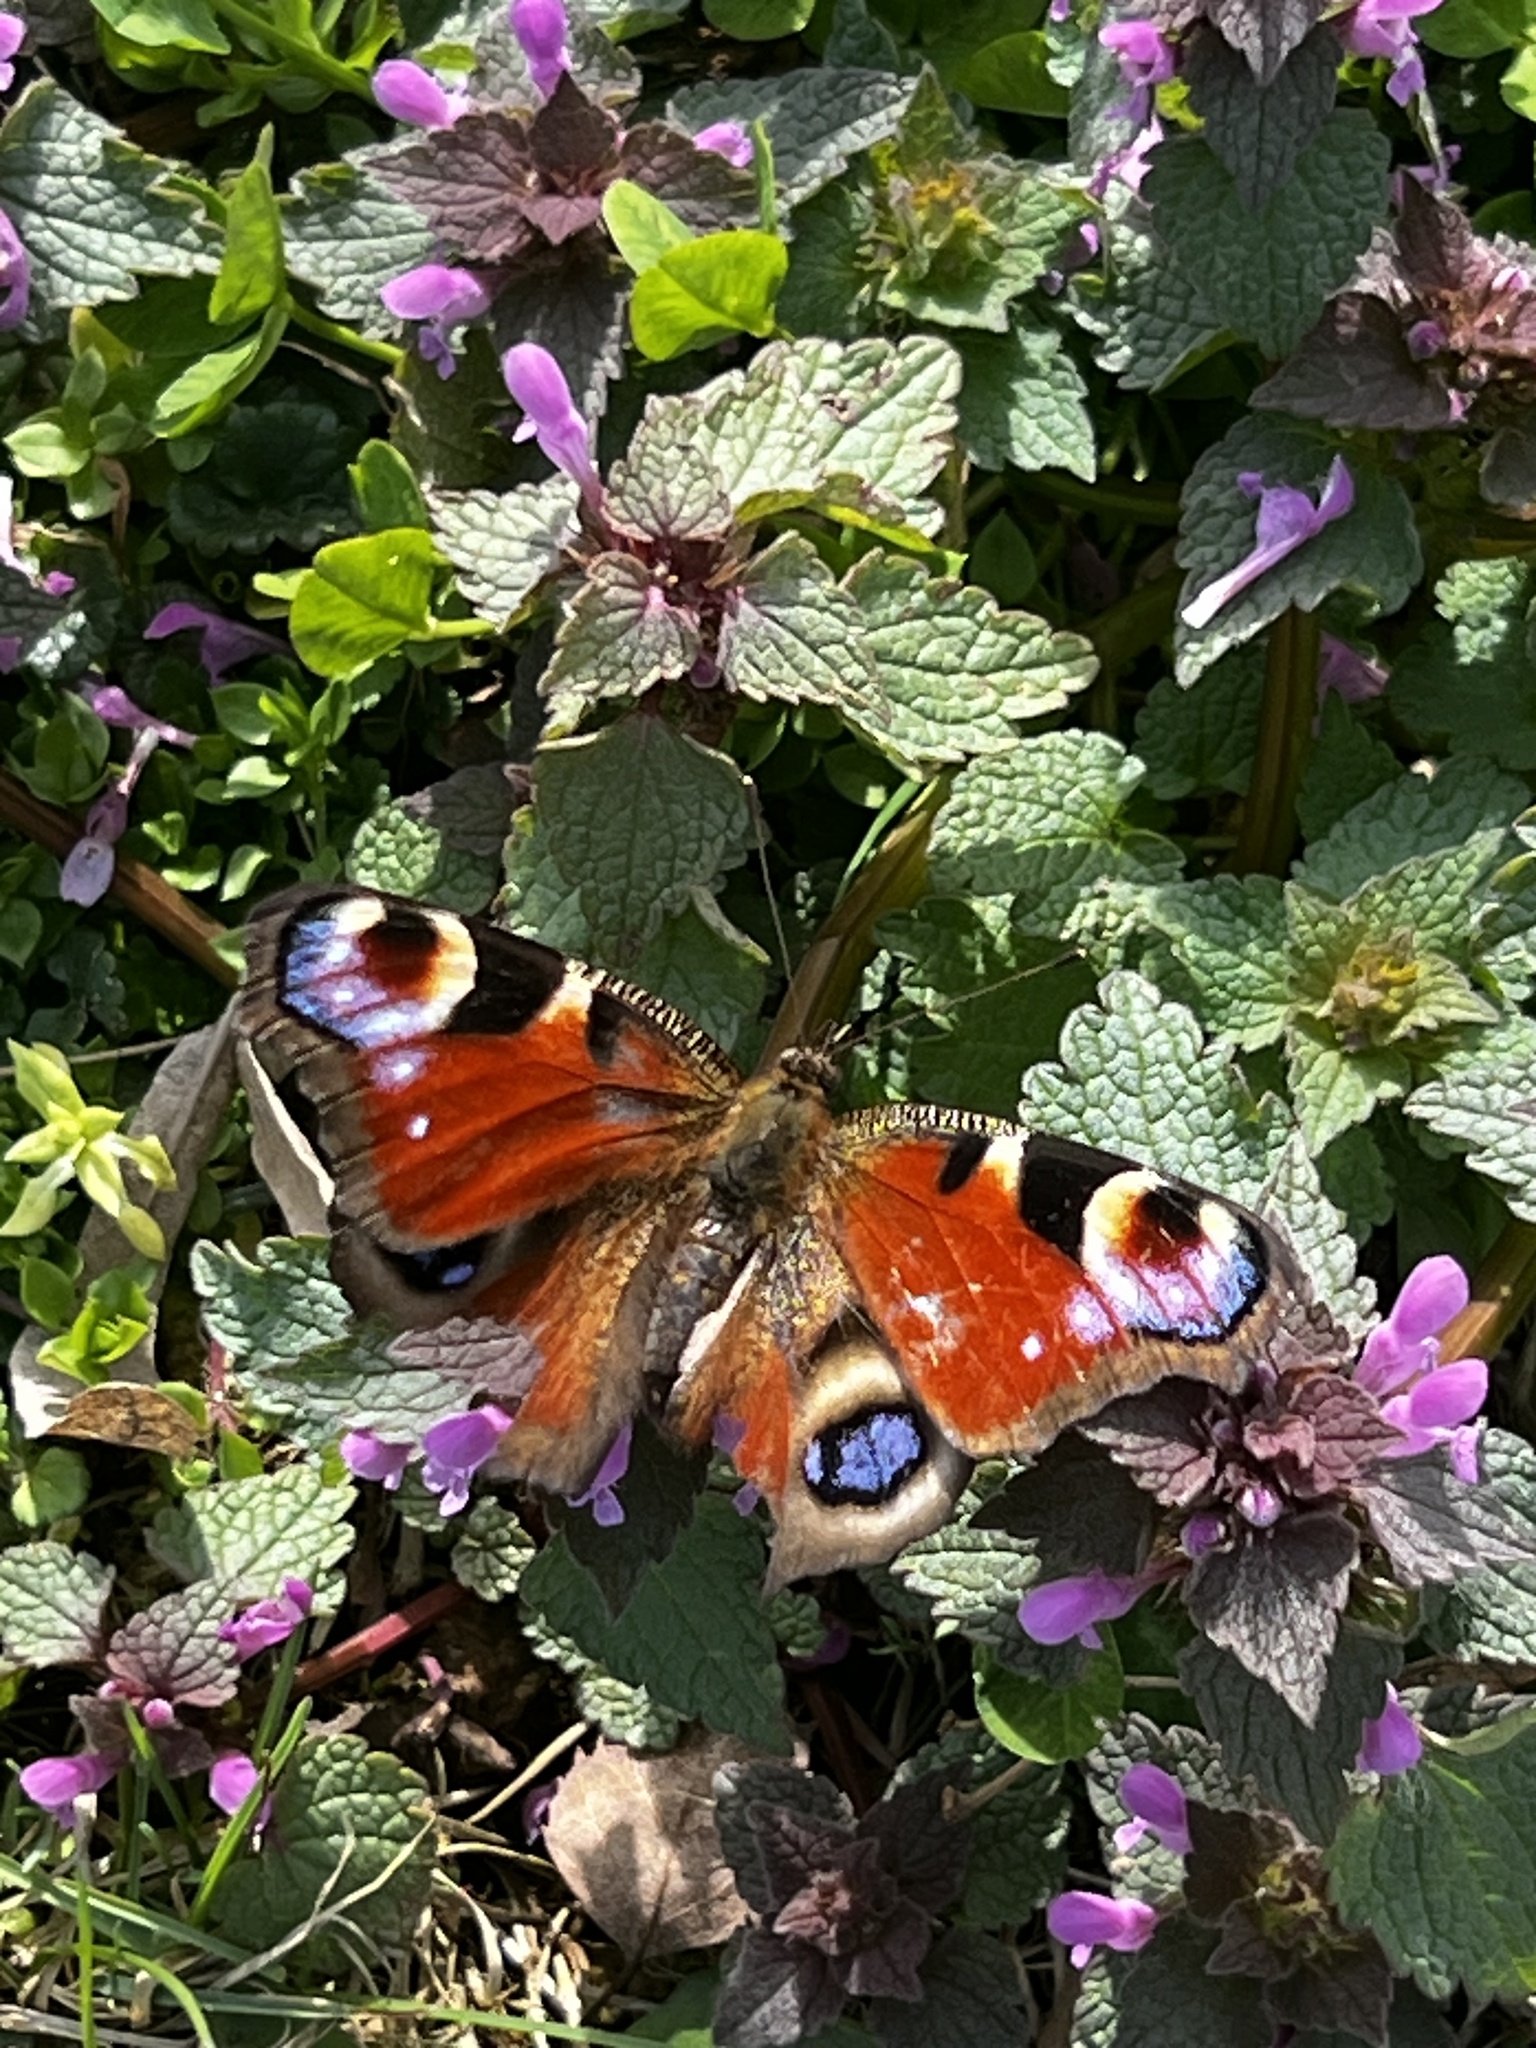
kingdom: Animalia
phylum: Arthropoda
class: Insecta
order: Lepidoptera
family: Nymphalidae
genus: Aglais
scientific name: Aglais io
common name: Peacock
